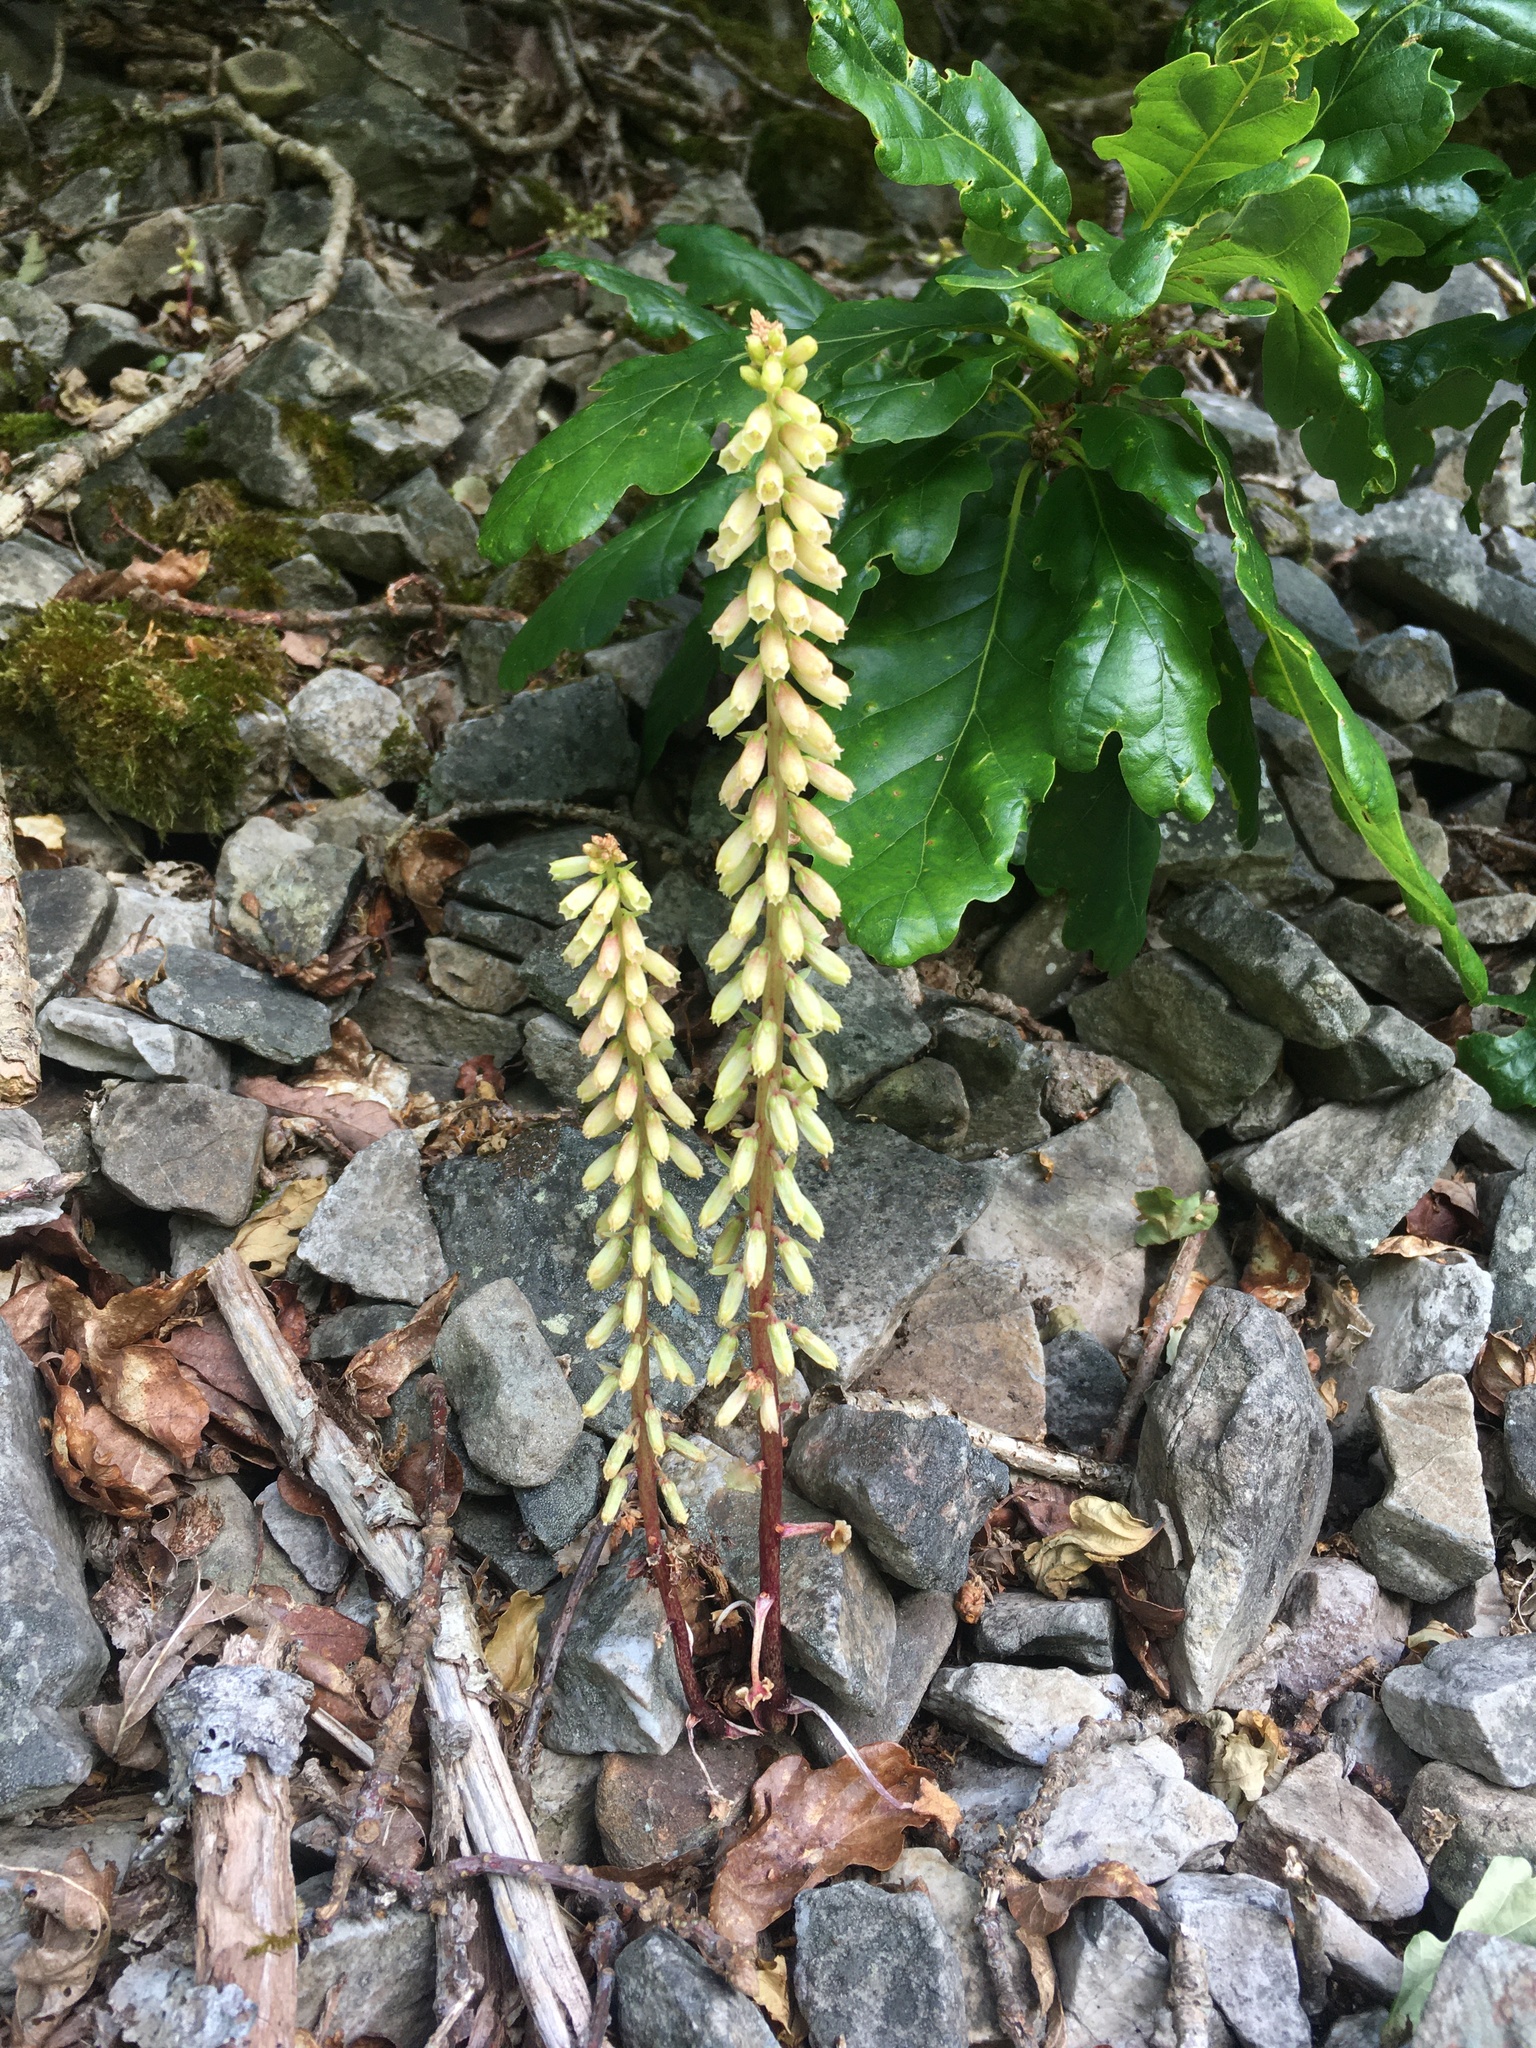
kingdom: Plantae
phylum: Tracheophyta
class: Magnoliopsida
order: Saxifragales
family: Crassulaceae
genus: Umbilicus
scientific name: Umbilicus rupestris
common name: Navelwort
